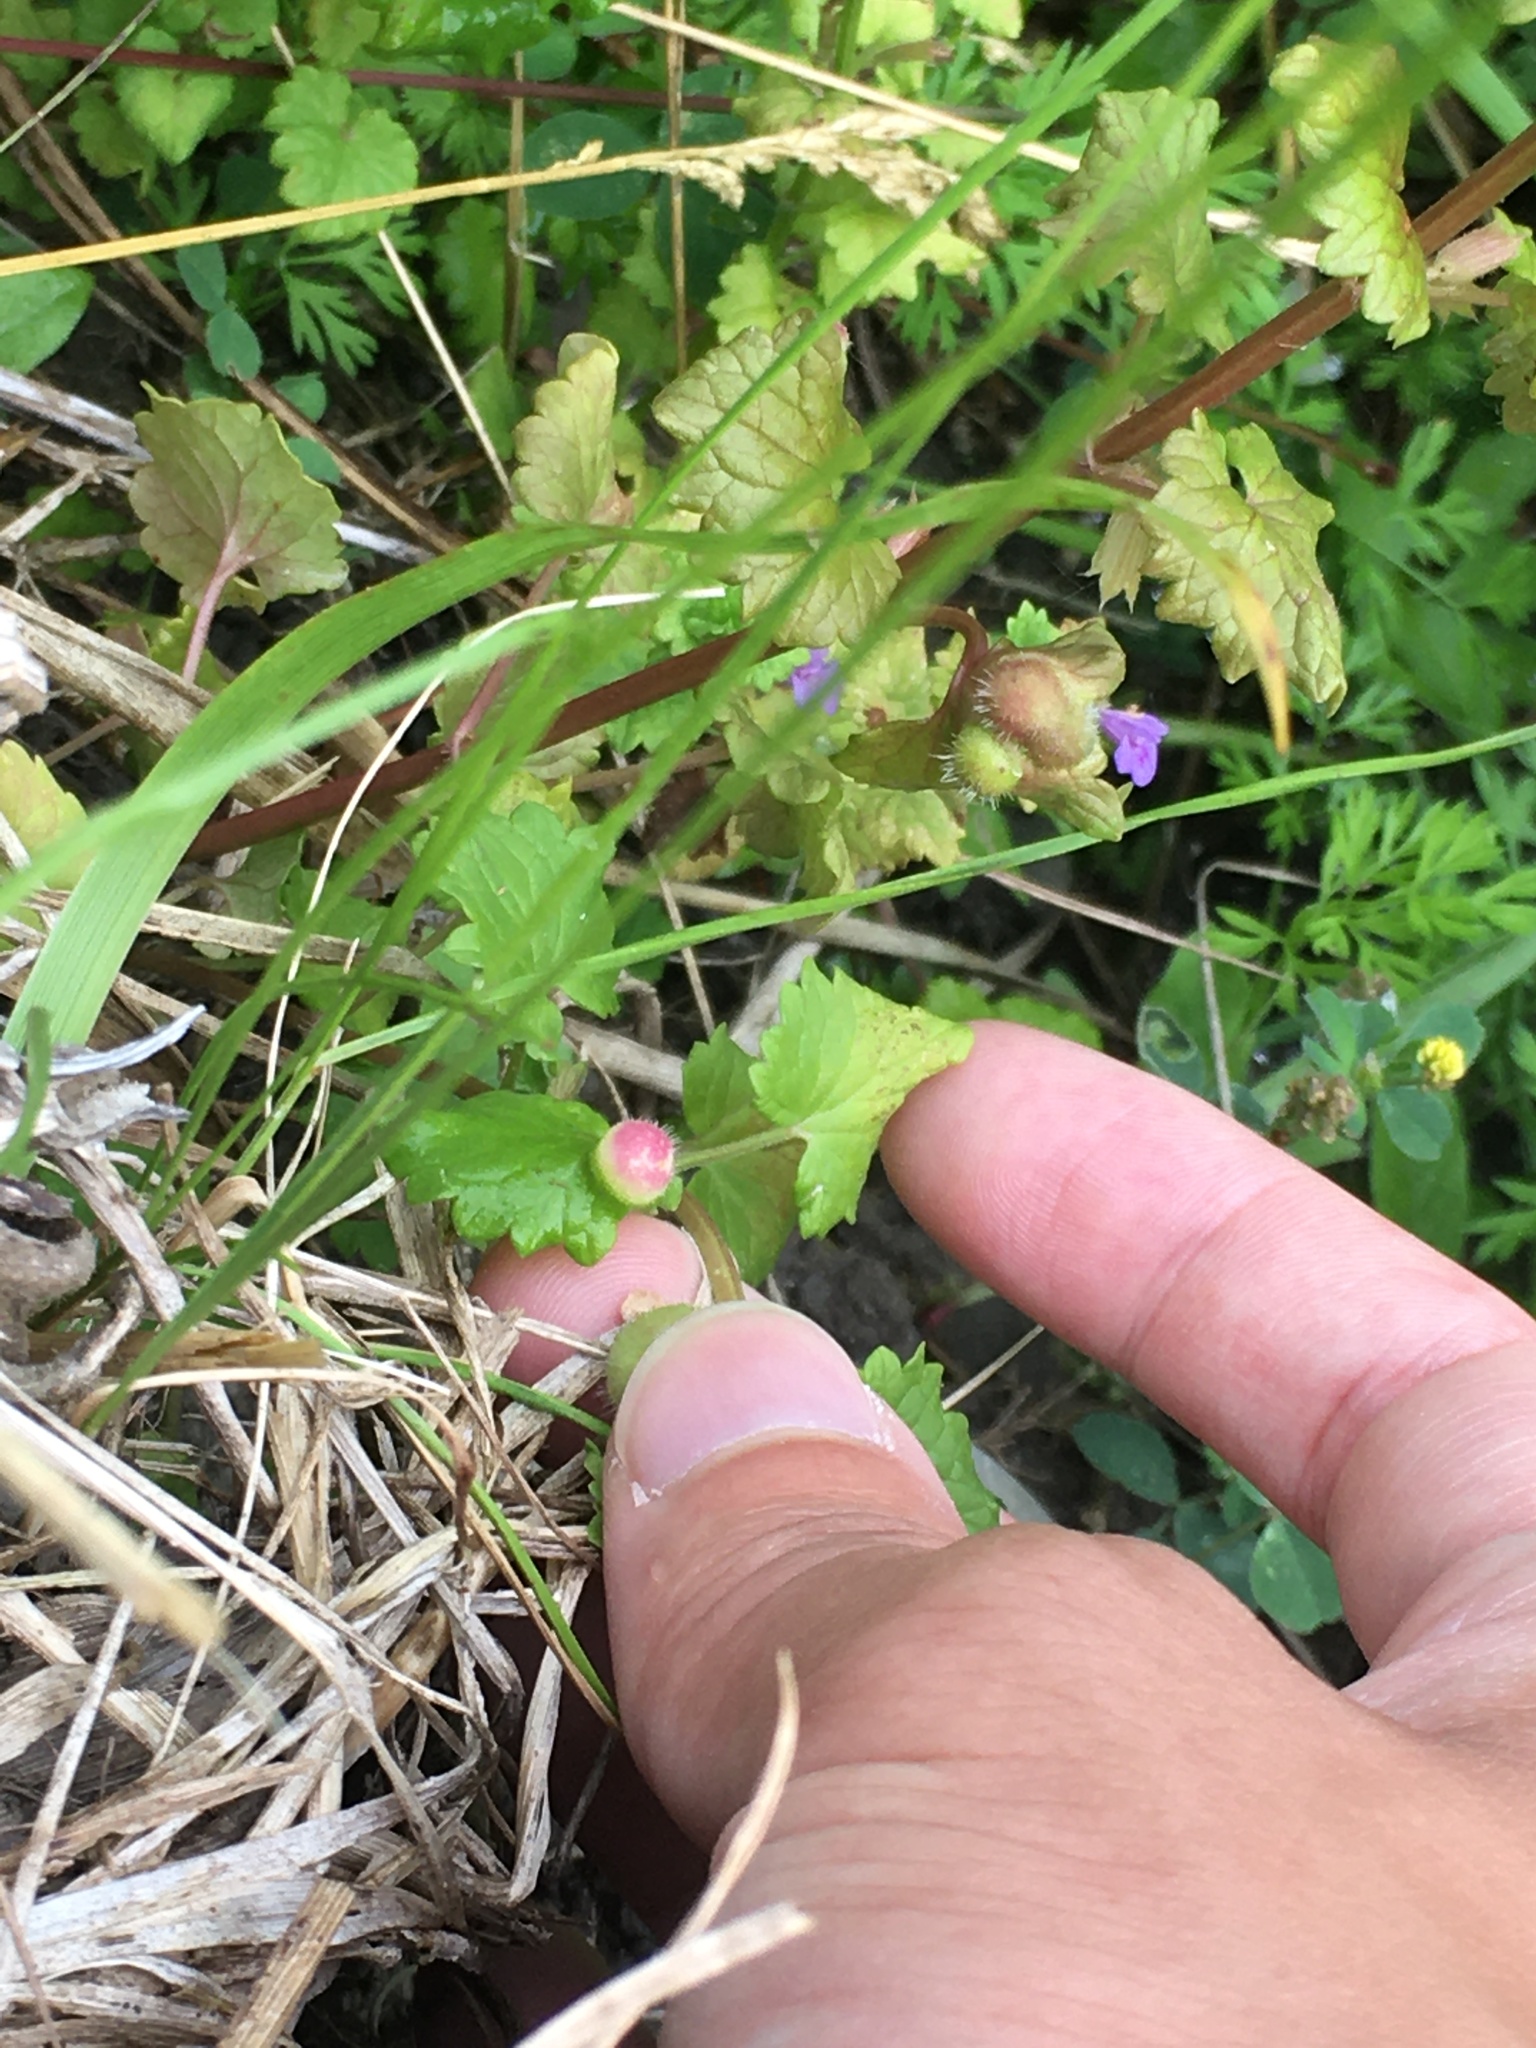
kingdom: Animalia
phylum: Arthropoda
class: Insecta
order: Hymenoptera
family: Cynipidae
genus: Liposthenes
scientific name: Liposthenes glechomae
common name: Gall wasp
